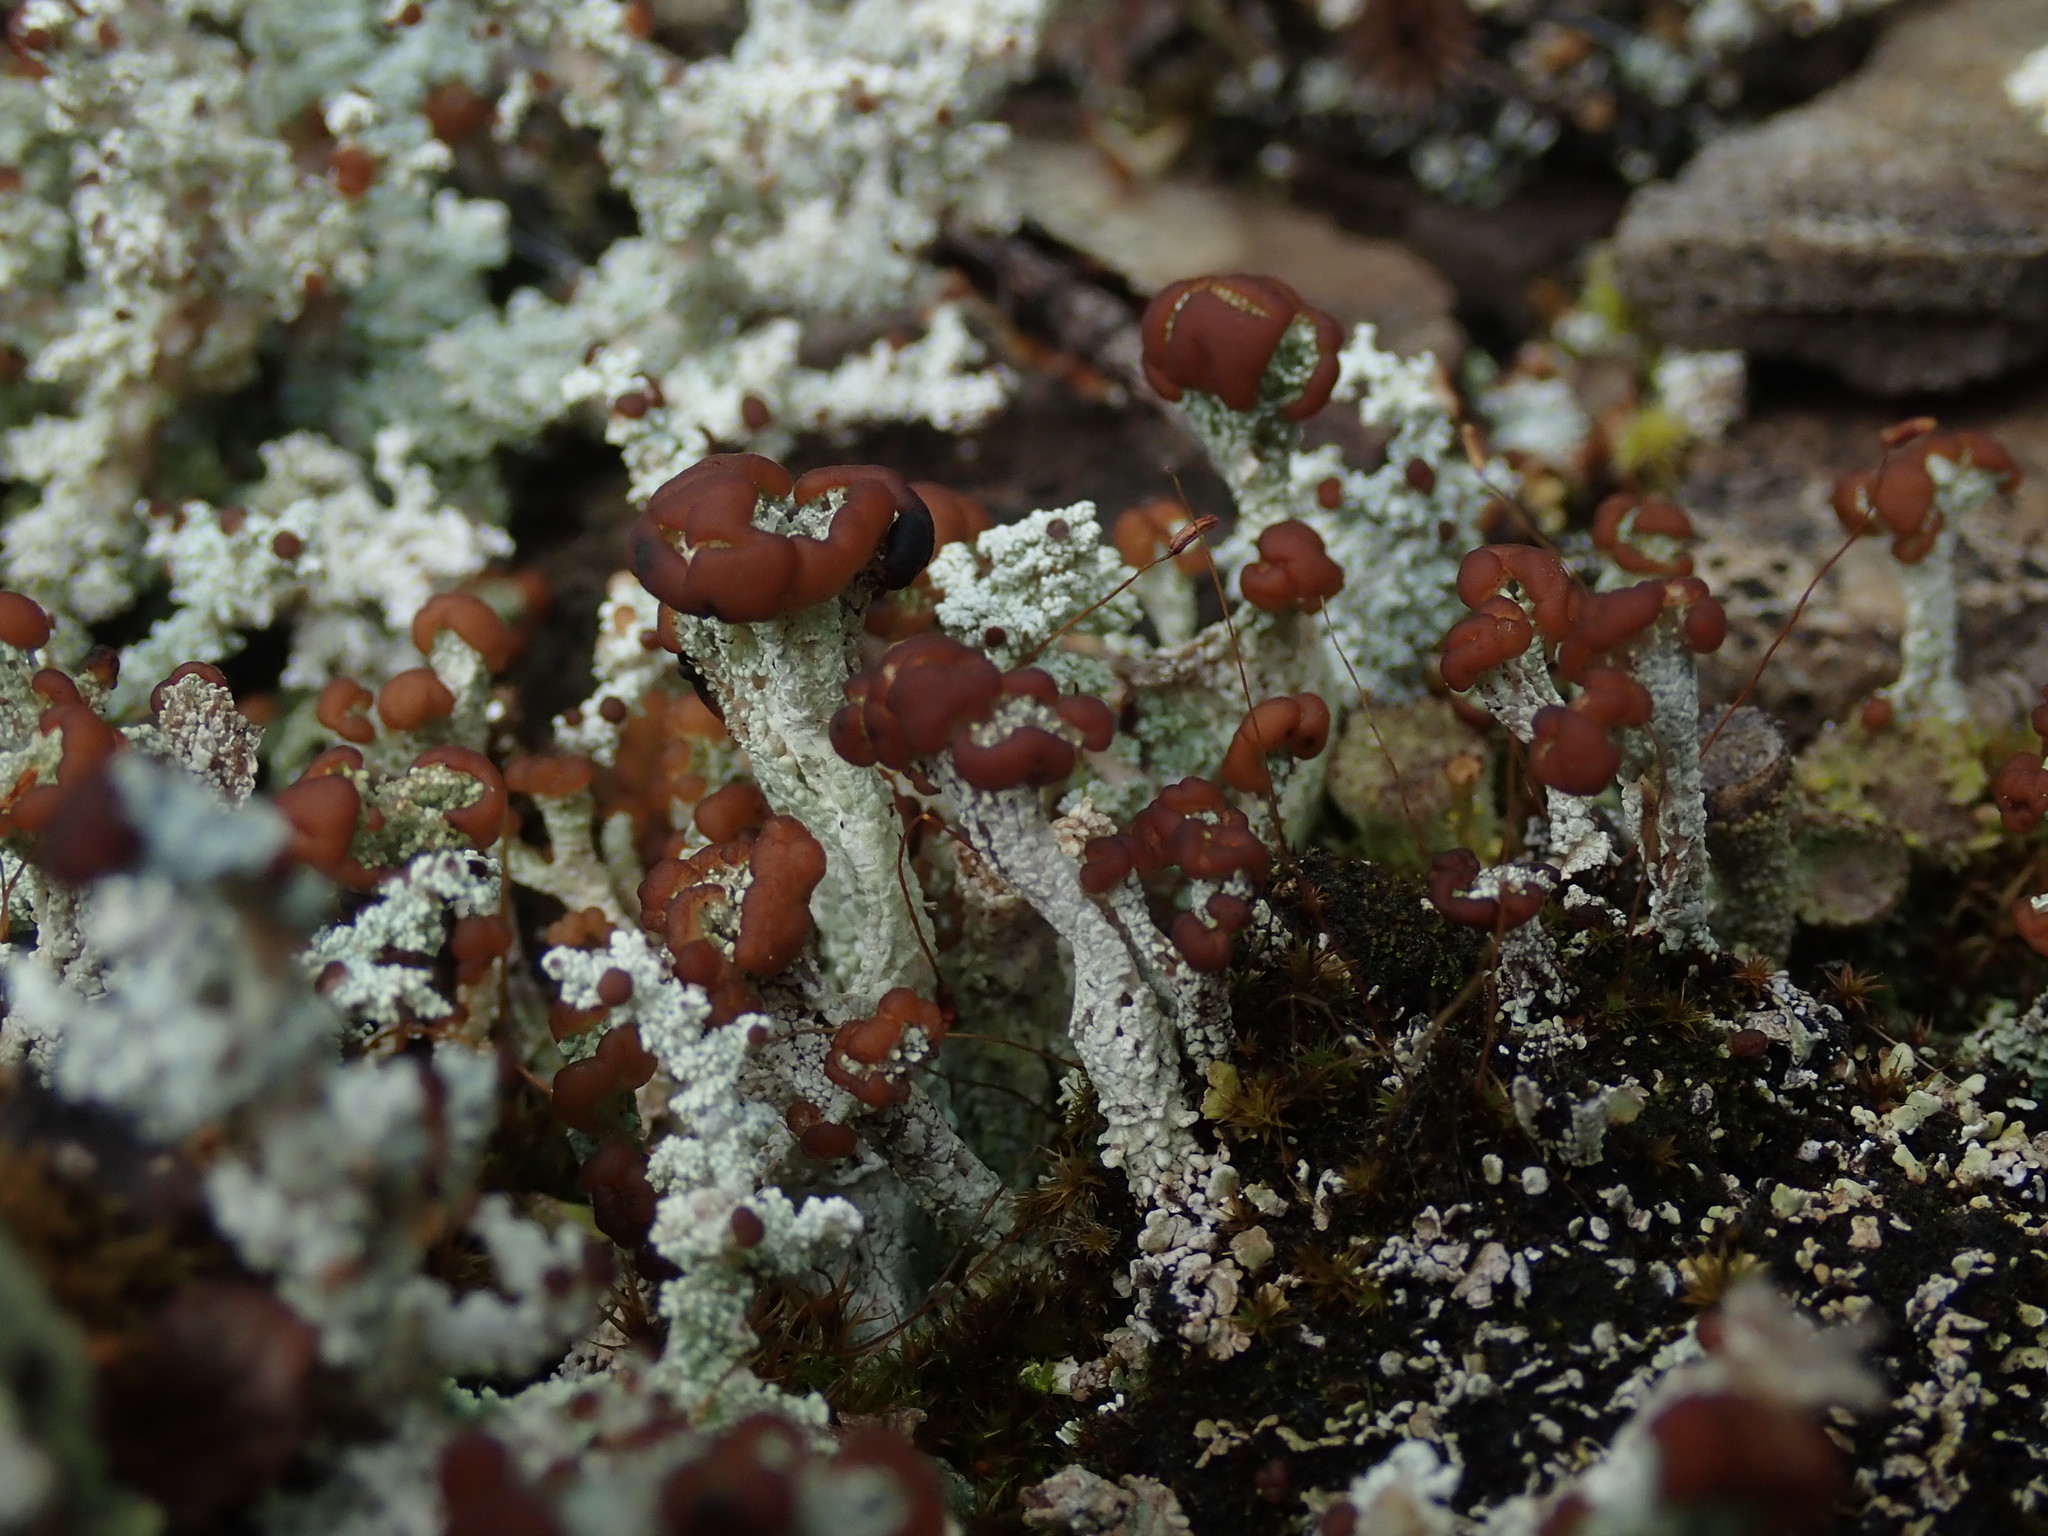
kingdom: Fungi
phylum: Ascomycota
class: Lecanoromycetes
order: Lecanorales
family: Cladoniaceae
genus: Cladonia
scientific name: Cladonia cariosa
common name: Split-peg lichen
